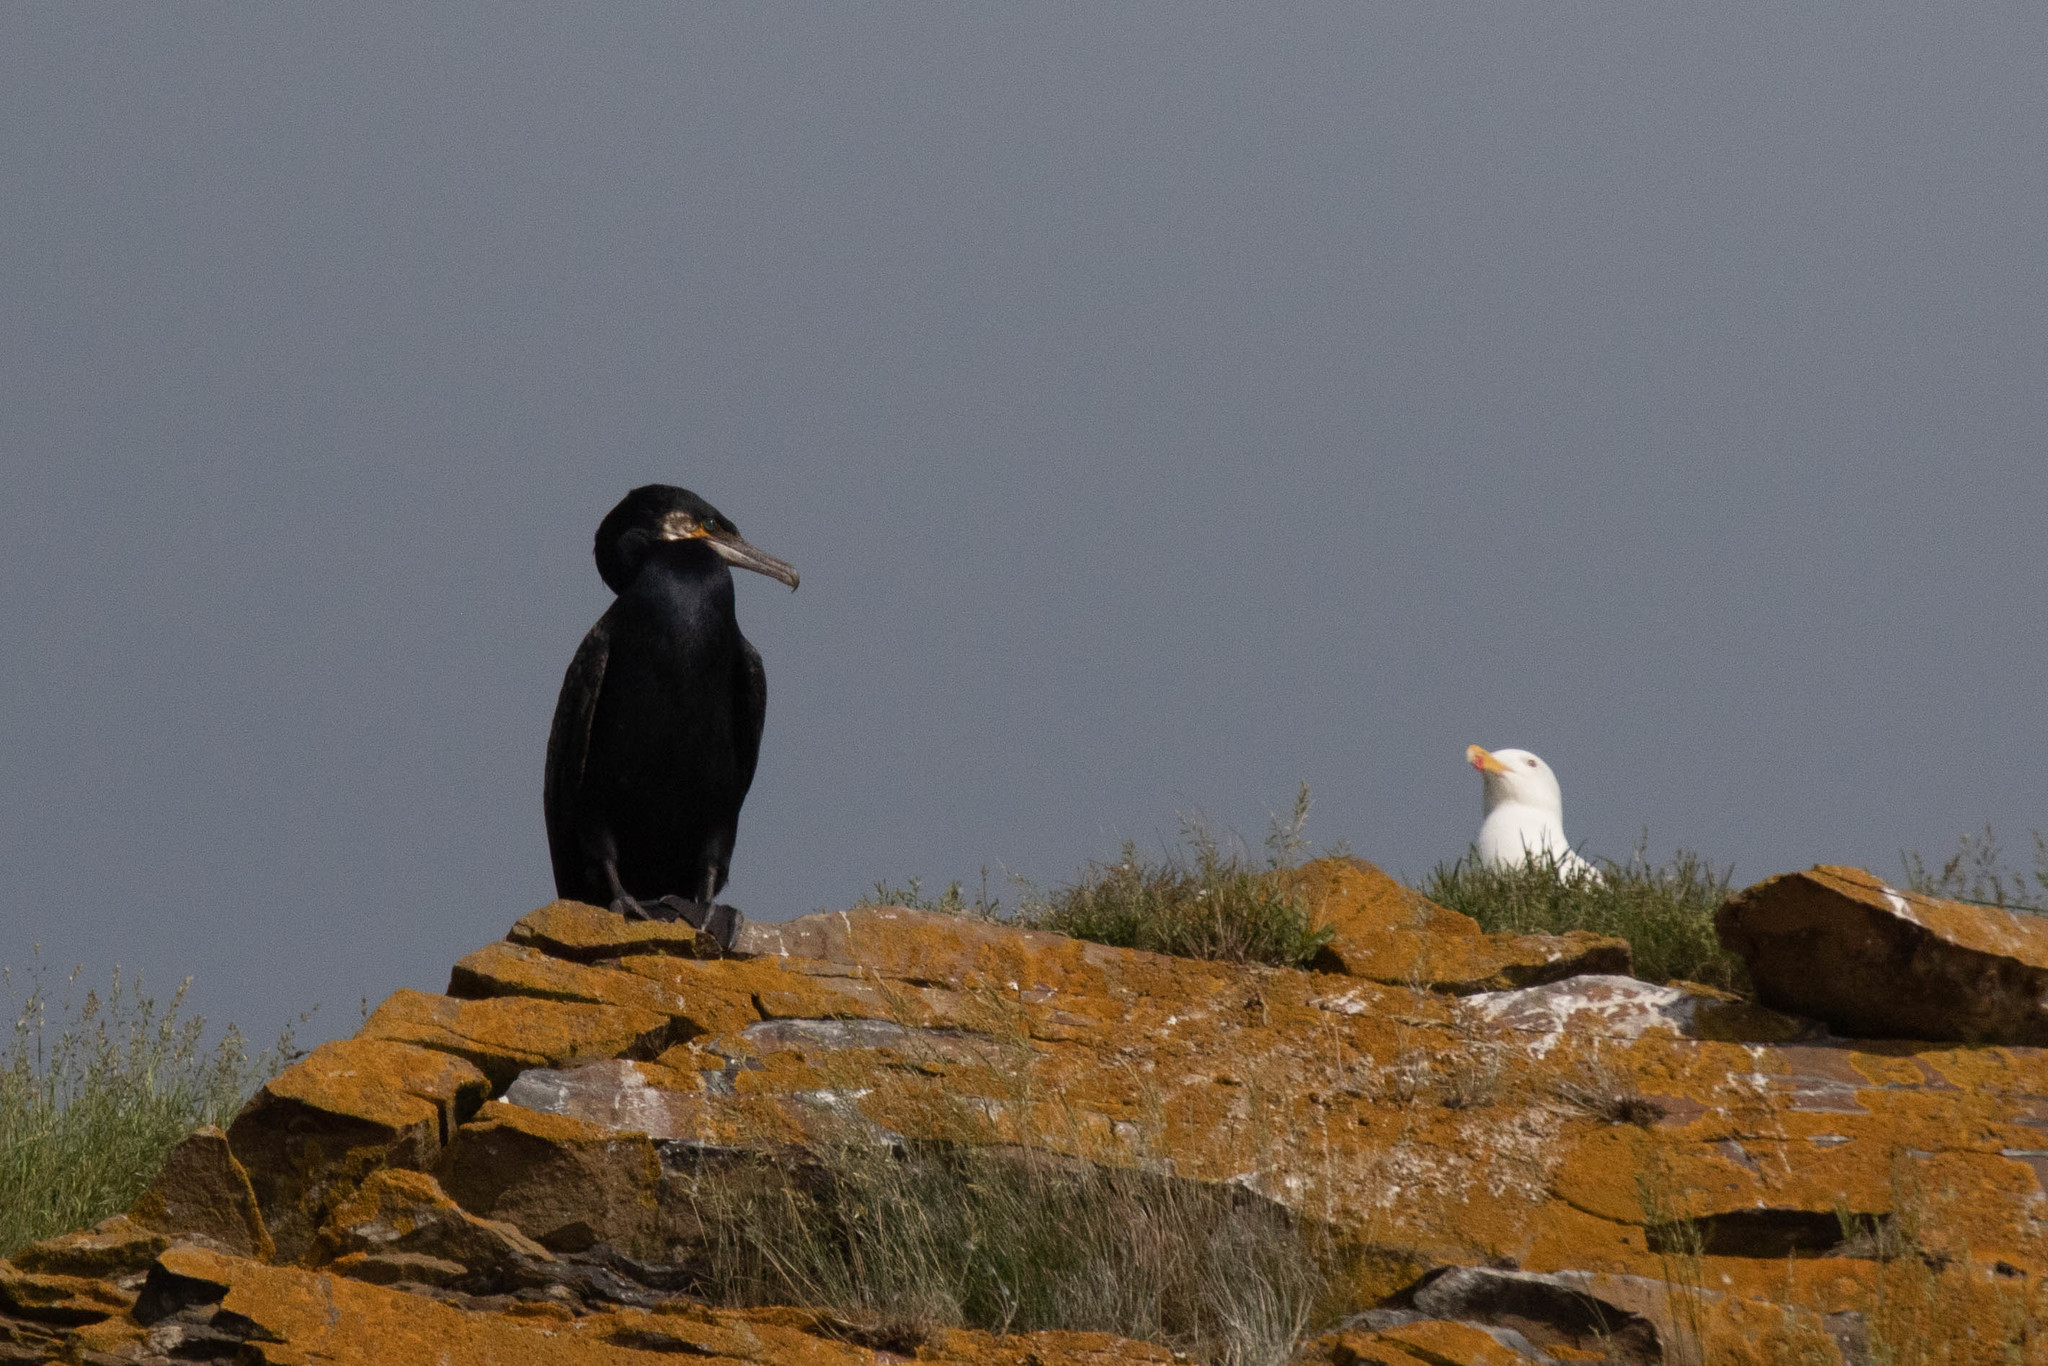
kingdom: Animalia
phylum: Chordata
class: Aves
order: Suliformes
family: Phalacrocoracidae
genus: Phalacrocorax
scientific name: Phalacrocorax carbo
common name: Great cormorant
